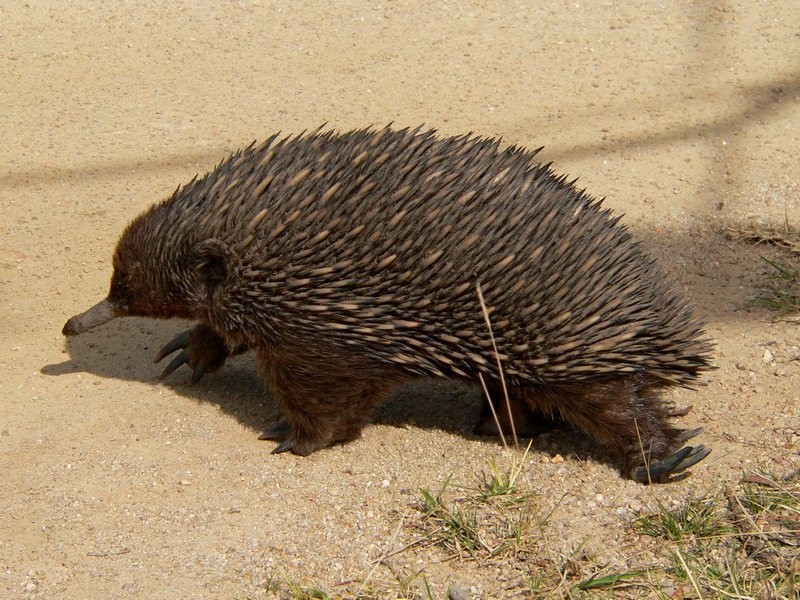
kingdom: Animalia
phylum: Chordata
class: Mammalia
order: Monotremata
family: Tachyglossidae
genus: Tachyglossus
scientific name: Tachyglossus aculeatus
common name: Short-beaked echidna
